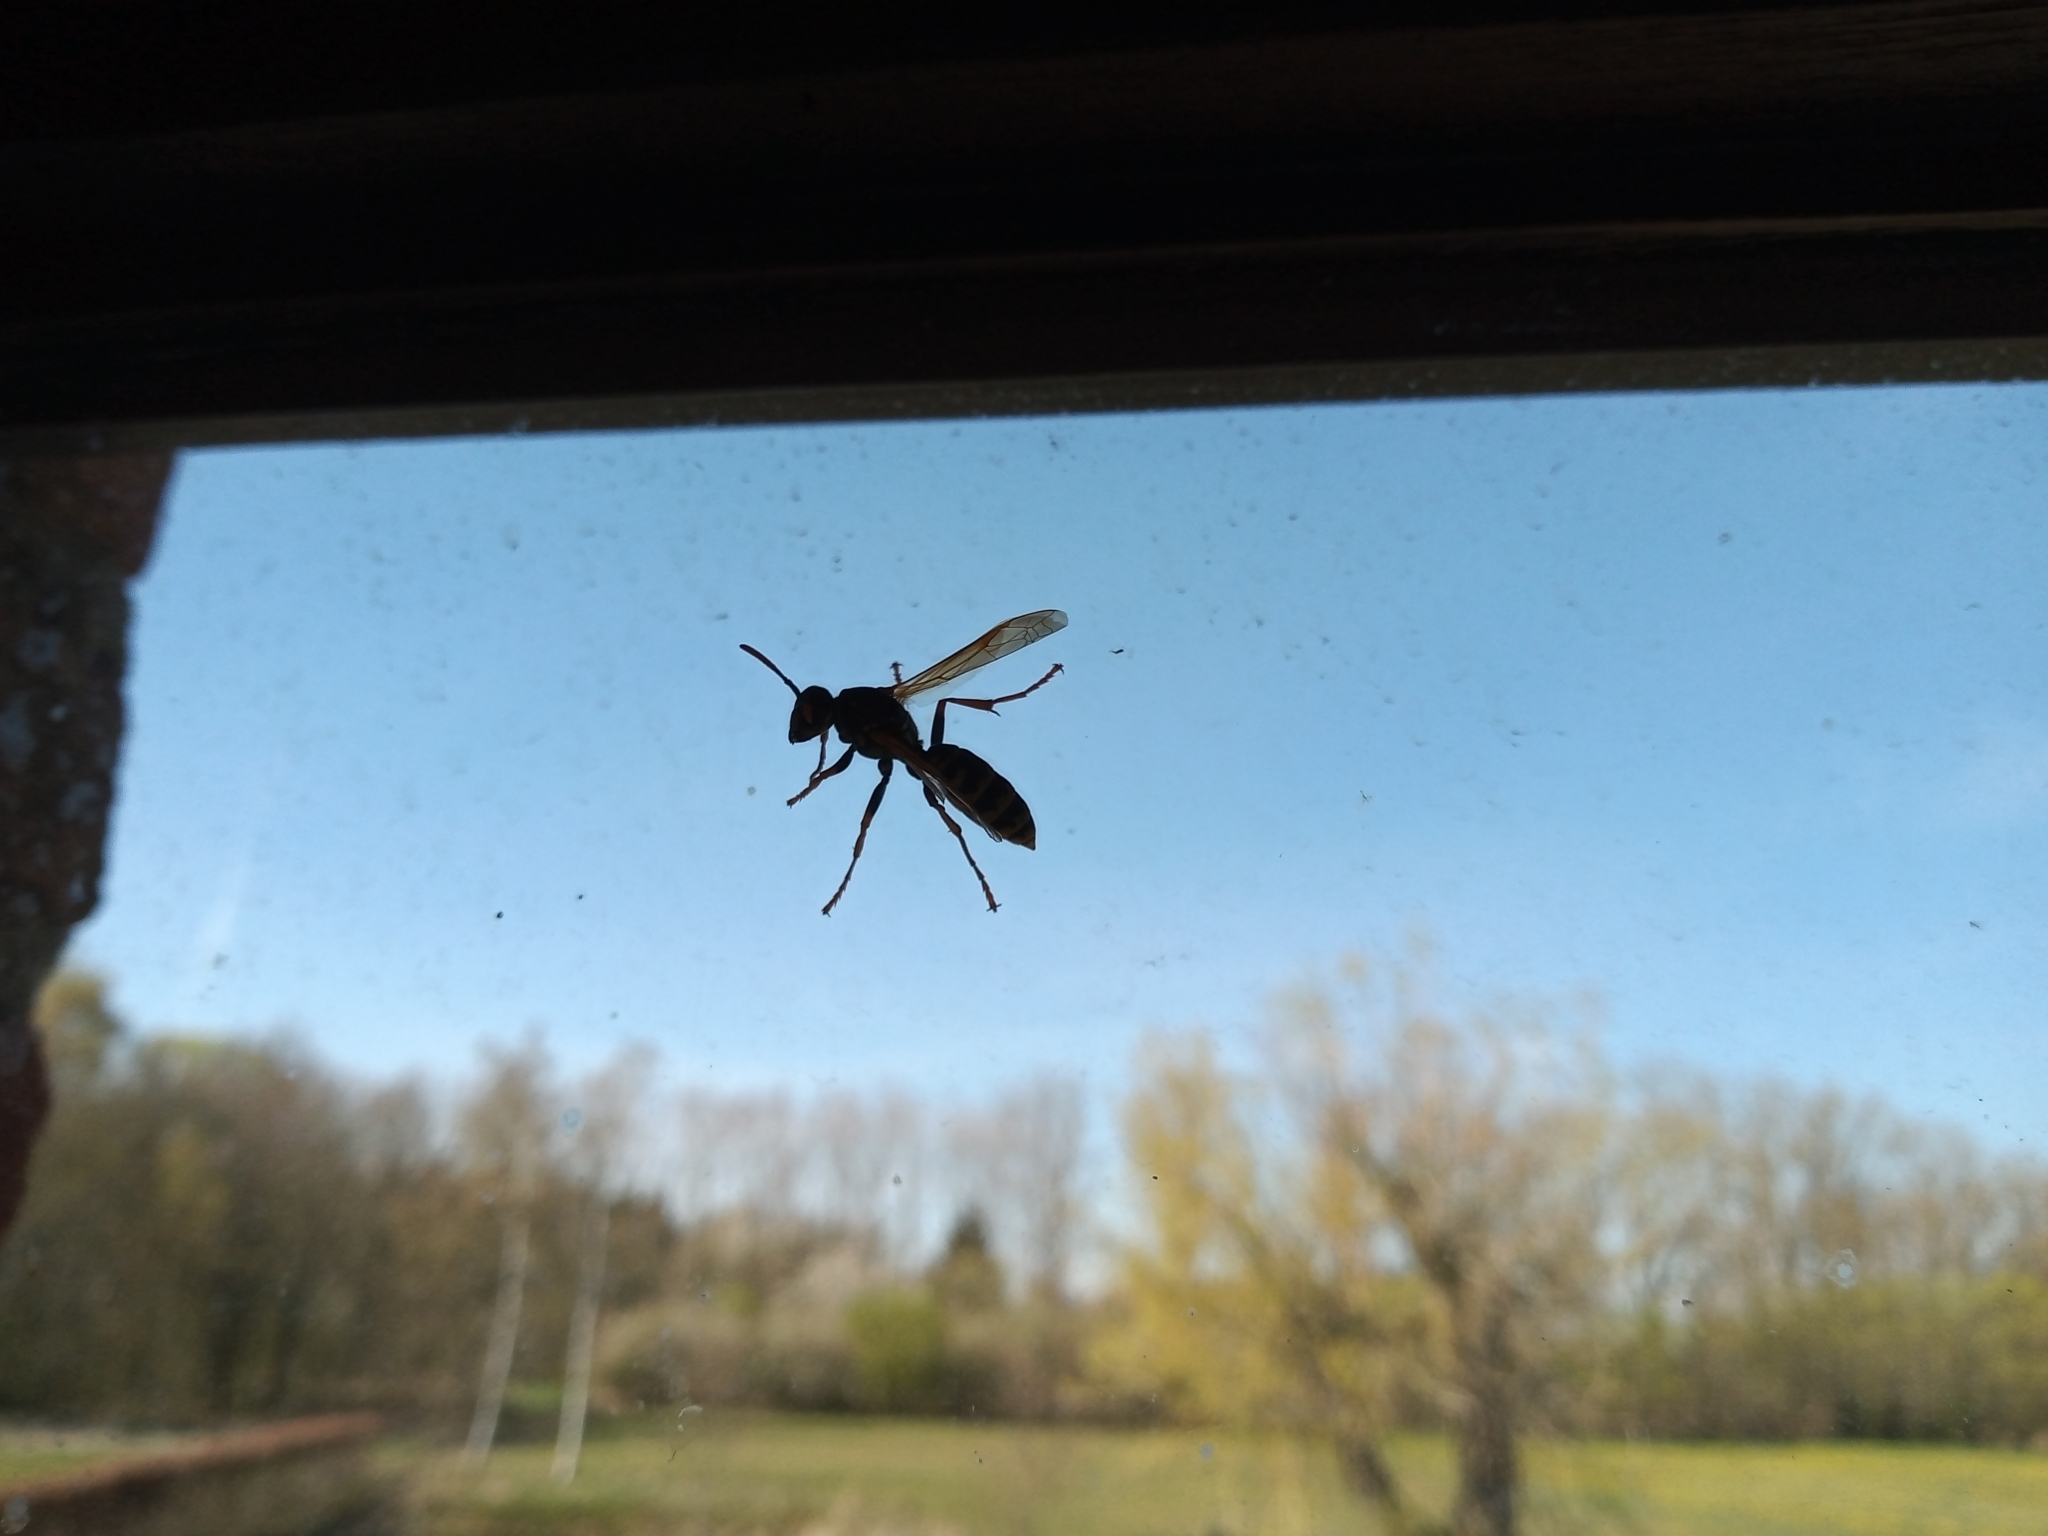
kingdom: Animalia
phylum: Arthropoda
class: Insecta
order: Hymenoptera
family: Eumenidae
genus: Polistes
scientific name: Polistes dominula
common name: Paper wasp
